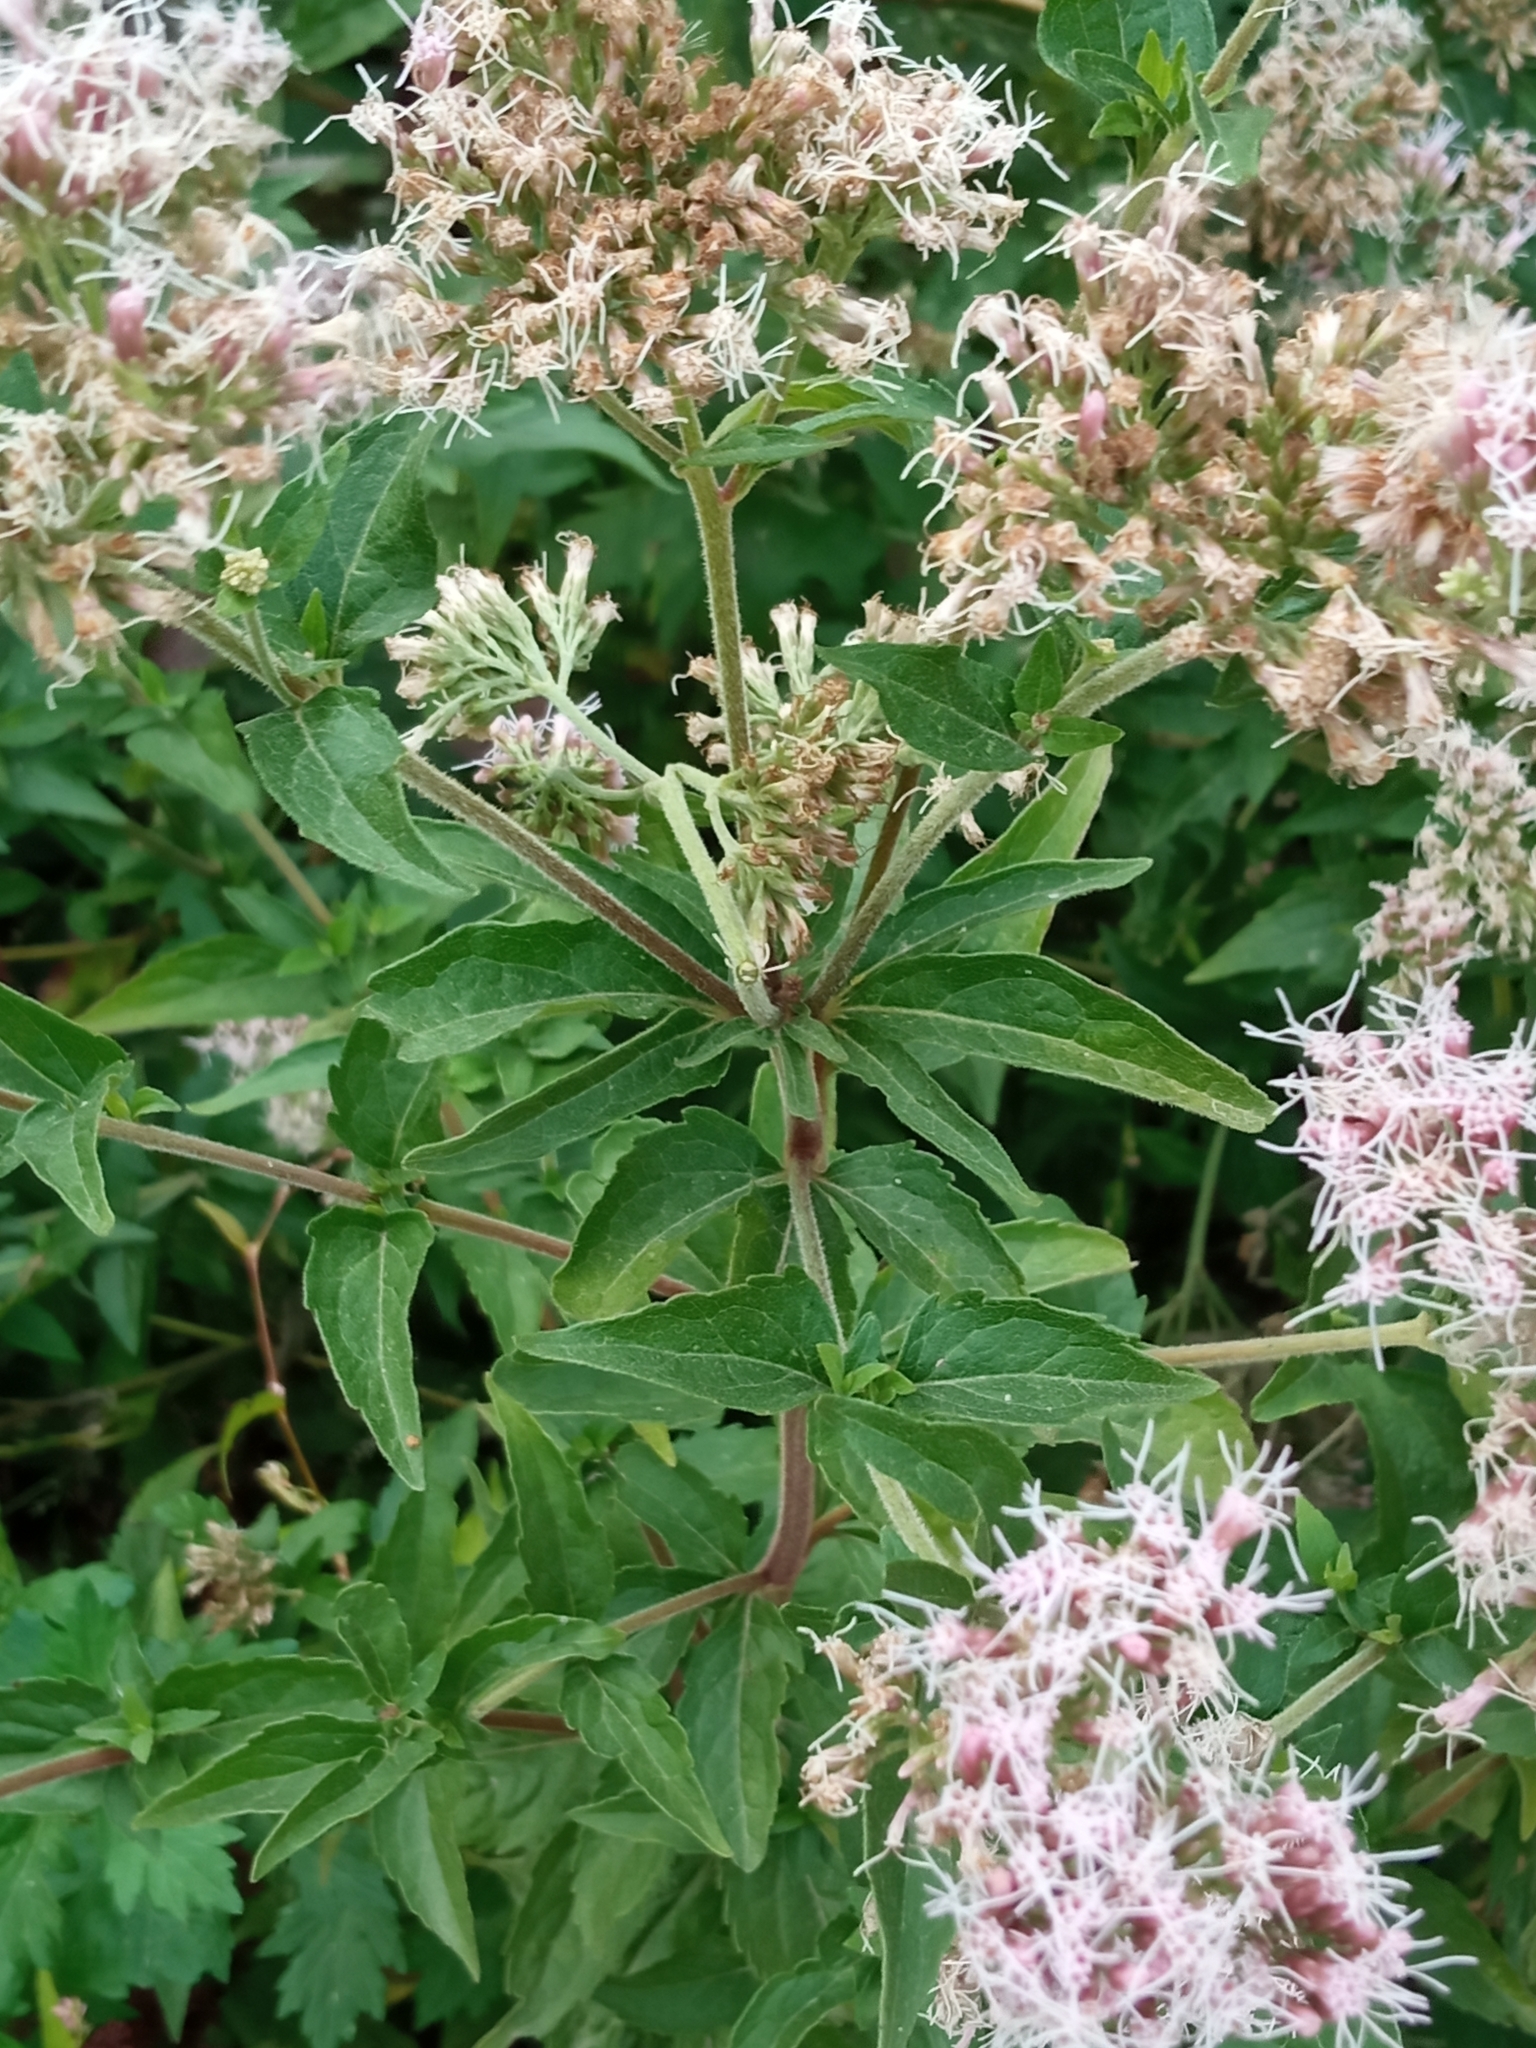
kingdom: Plantae
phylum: Tracheophyta
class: Magnoliopsida
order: Asterales
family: Asteraceae
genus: Eupatorium
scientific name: Eupatorium cannabinum
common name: Hemp-agrimony
